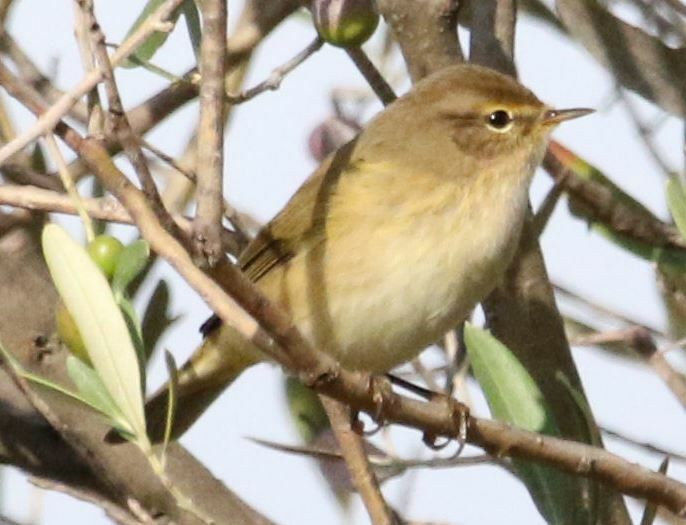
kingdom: Animalia
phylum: Chordata
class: Aves
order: Passeriformes
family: Phylloscopidae
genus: Phylloscopus
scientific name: Phylloscopus collybita
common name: Common chiffchaff
